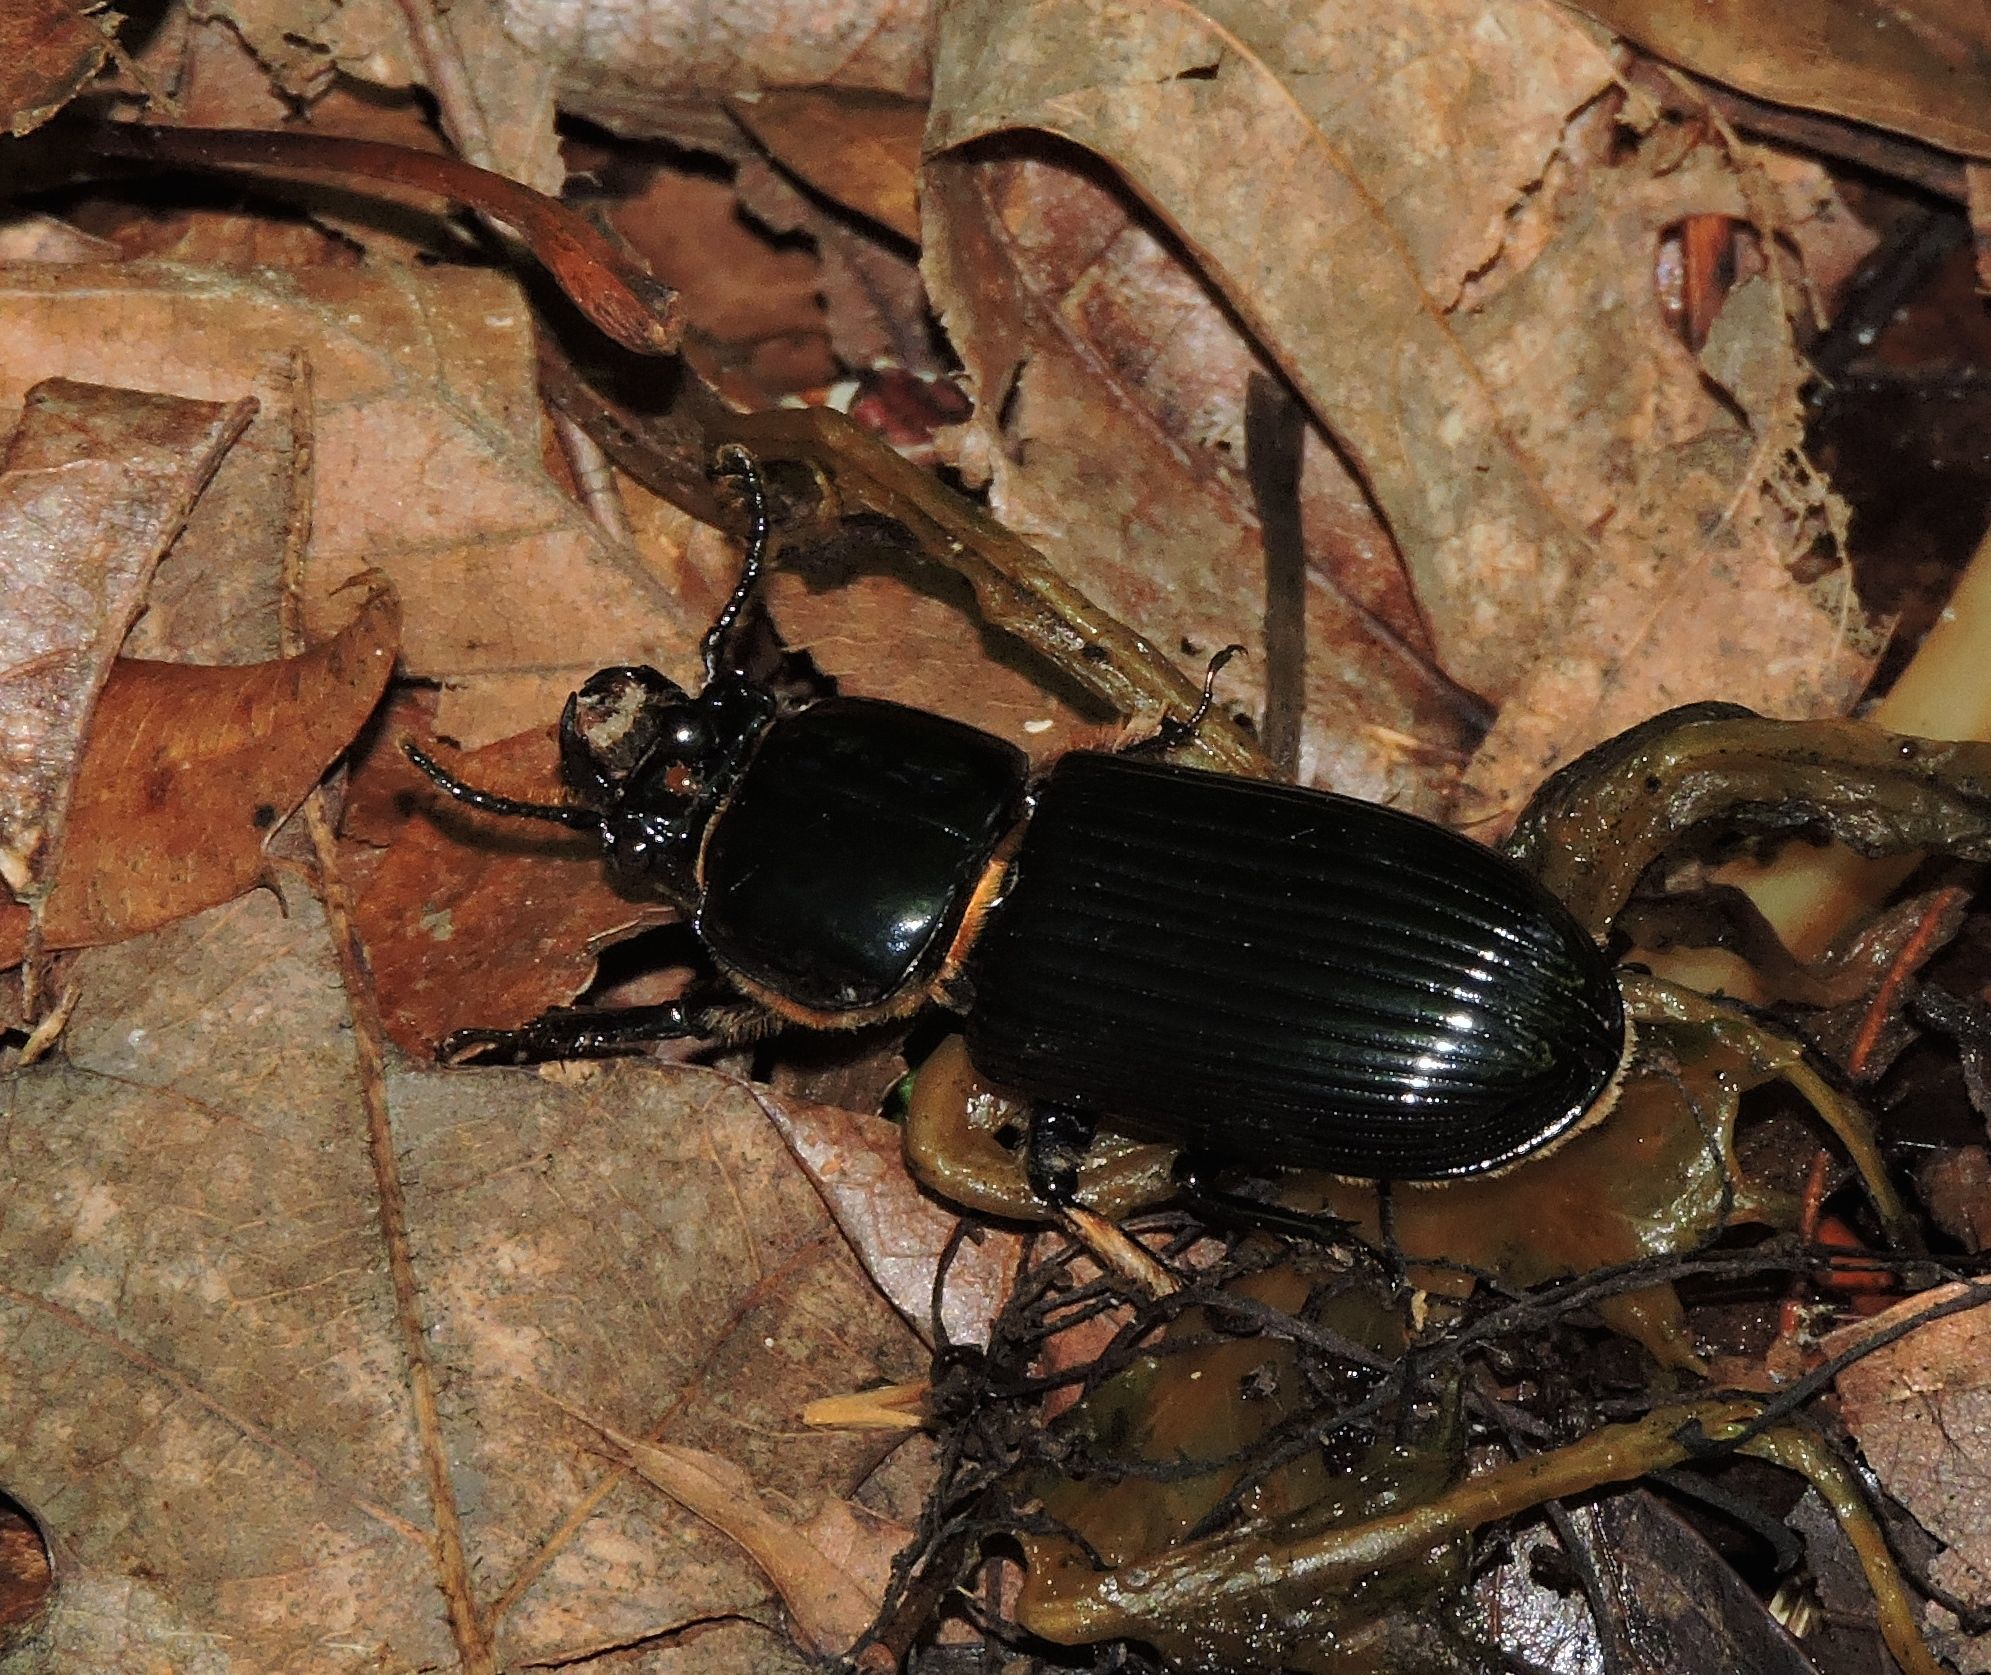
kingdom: Animalia
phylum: Arthropoda
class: Insecta
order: Coleoptera
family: Passalidae
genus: Odontotaenius
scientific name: Odontotaenius disjunctus
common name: Patent leather beetle
